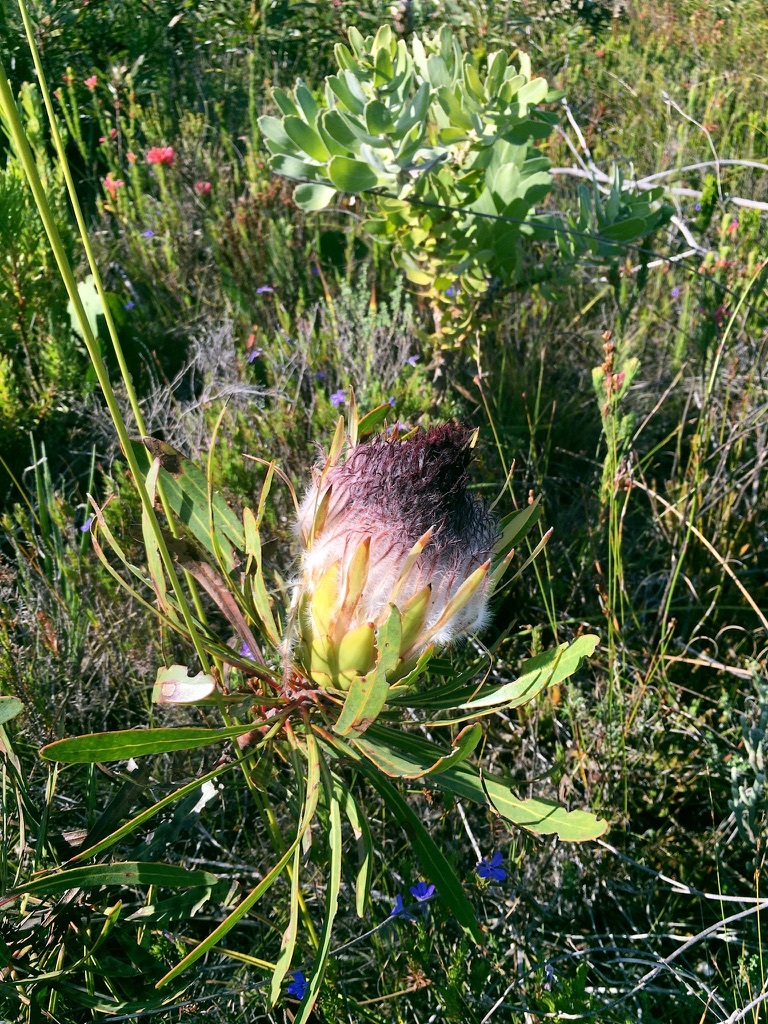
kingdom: Plantae
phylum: Tracheophyta
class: Magnoliopsida
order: Proteales
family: Proteaceae
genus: Protea
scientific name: Protea longifolia
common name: Long-leaf sugarbush
